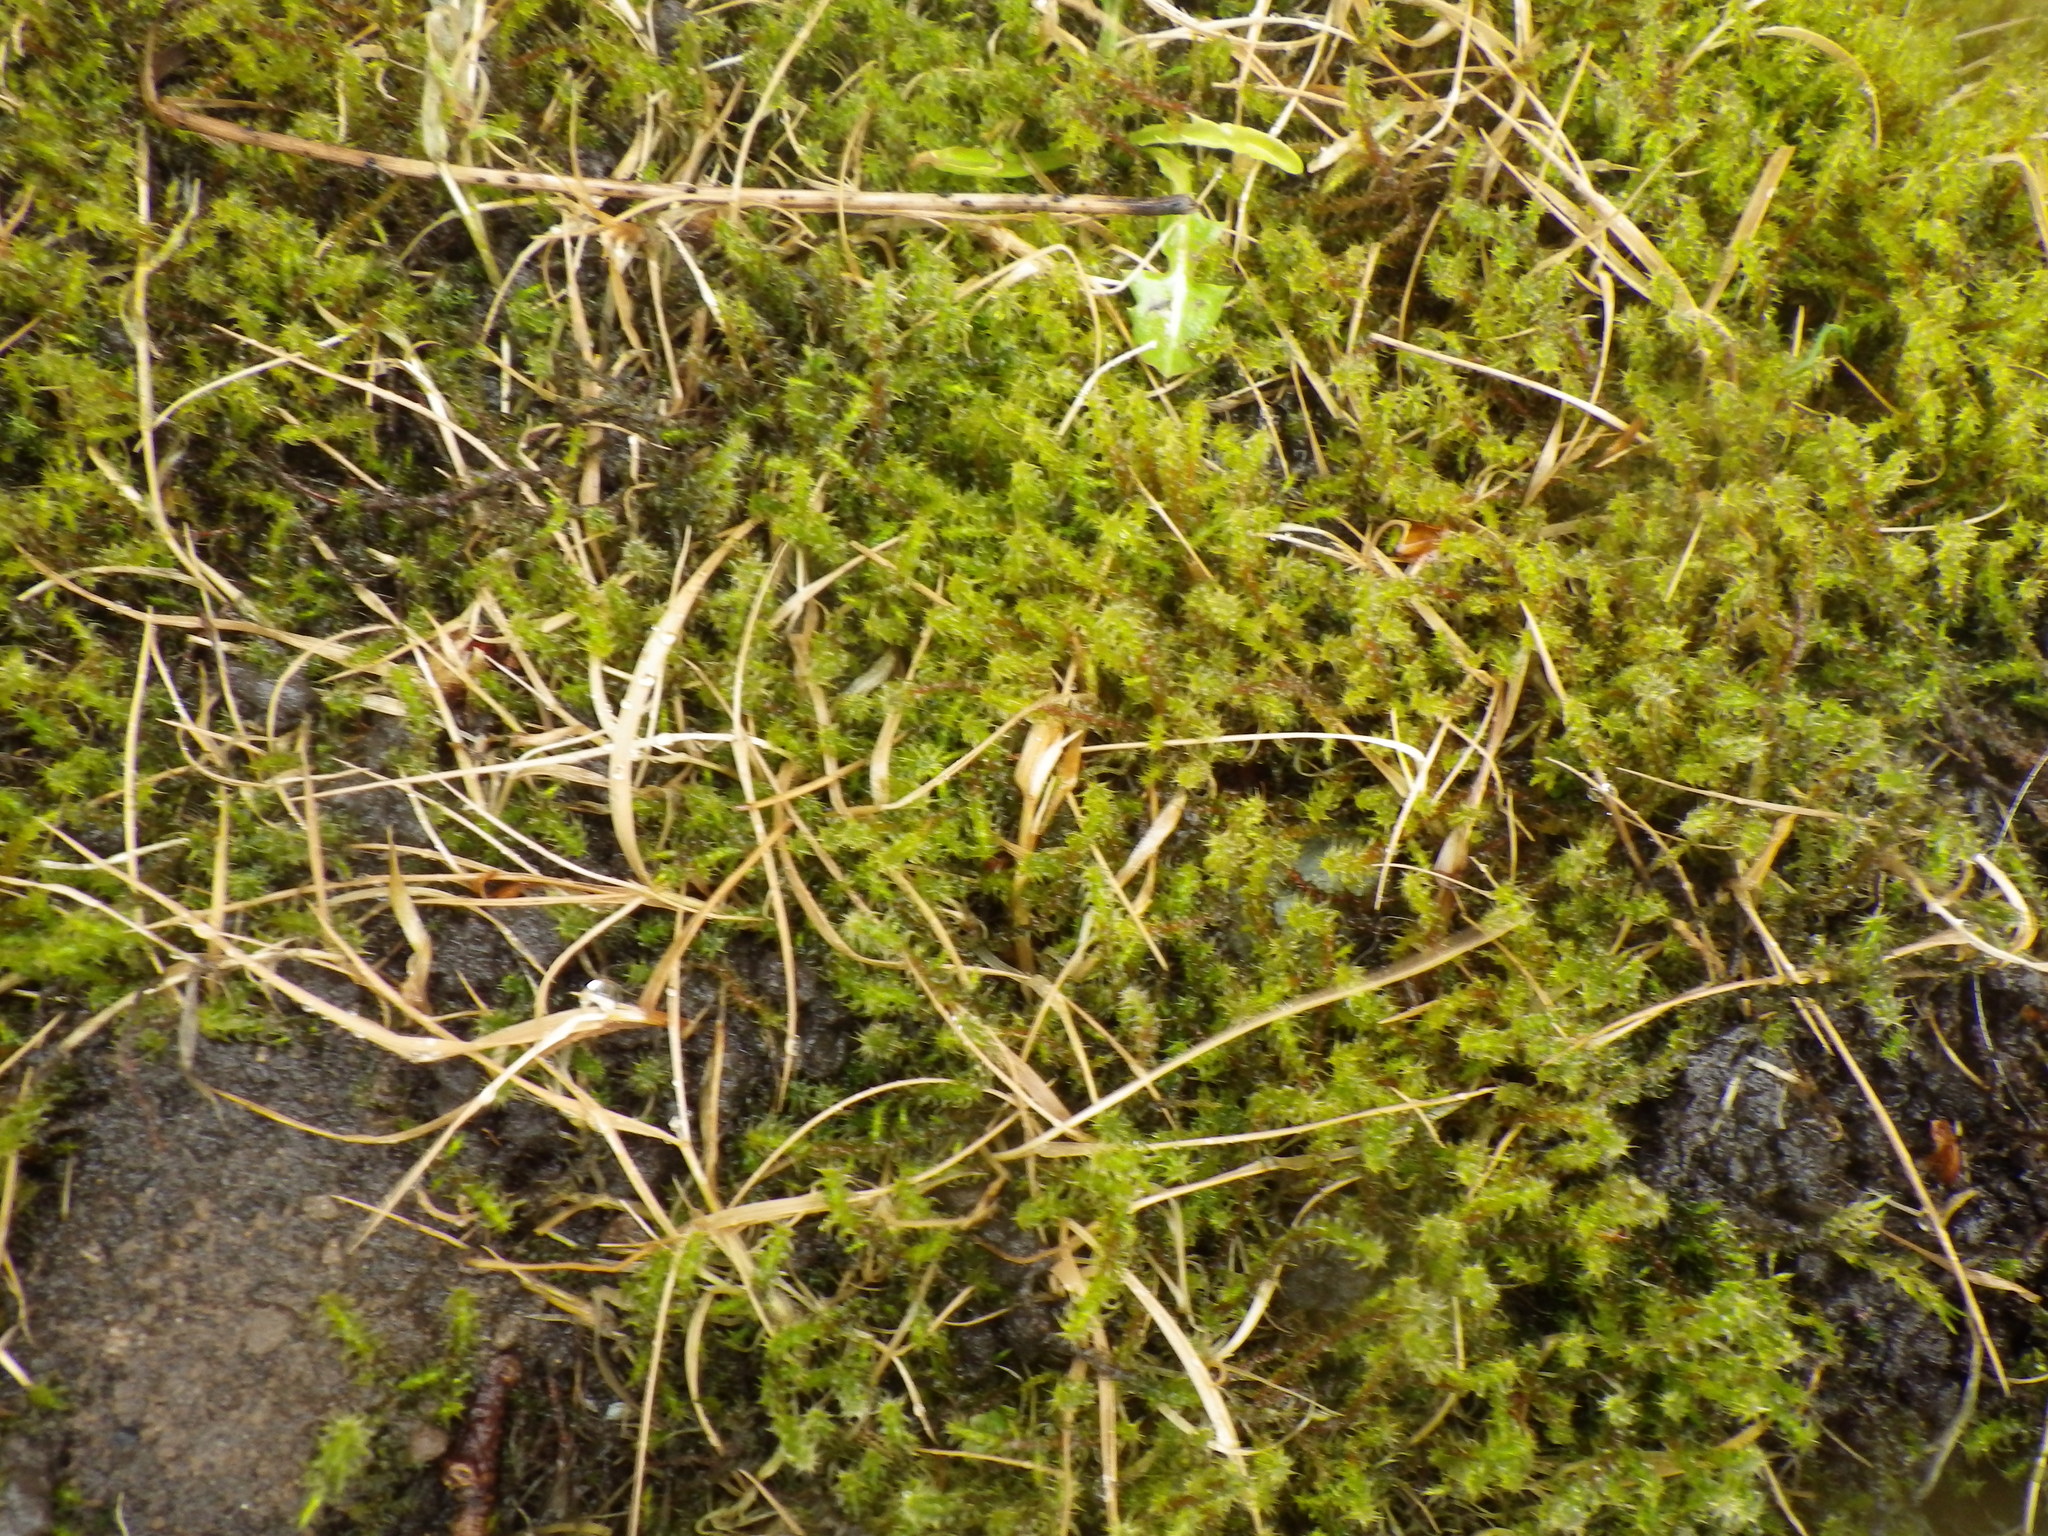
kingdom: Plantae
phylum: Bryophyta
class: Bryopsida
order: Hypnales
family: Hylocomiaceae
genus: Rhytidiadelphus
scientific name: Rhytidiadelphus squarrosus
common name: Springy turf-moss
